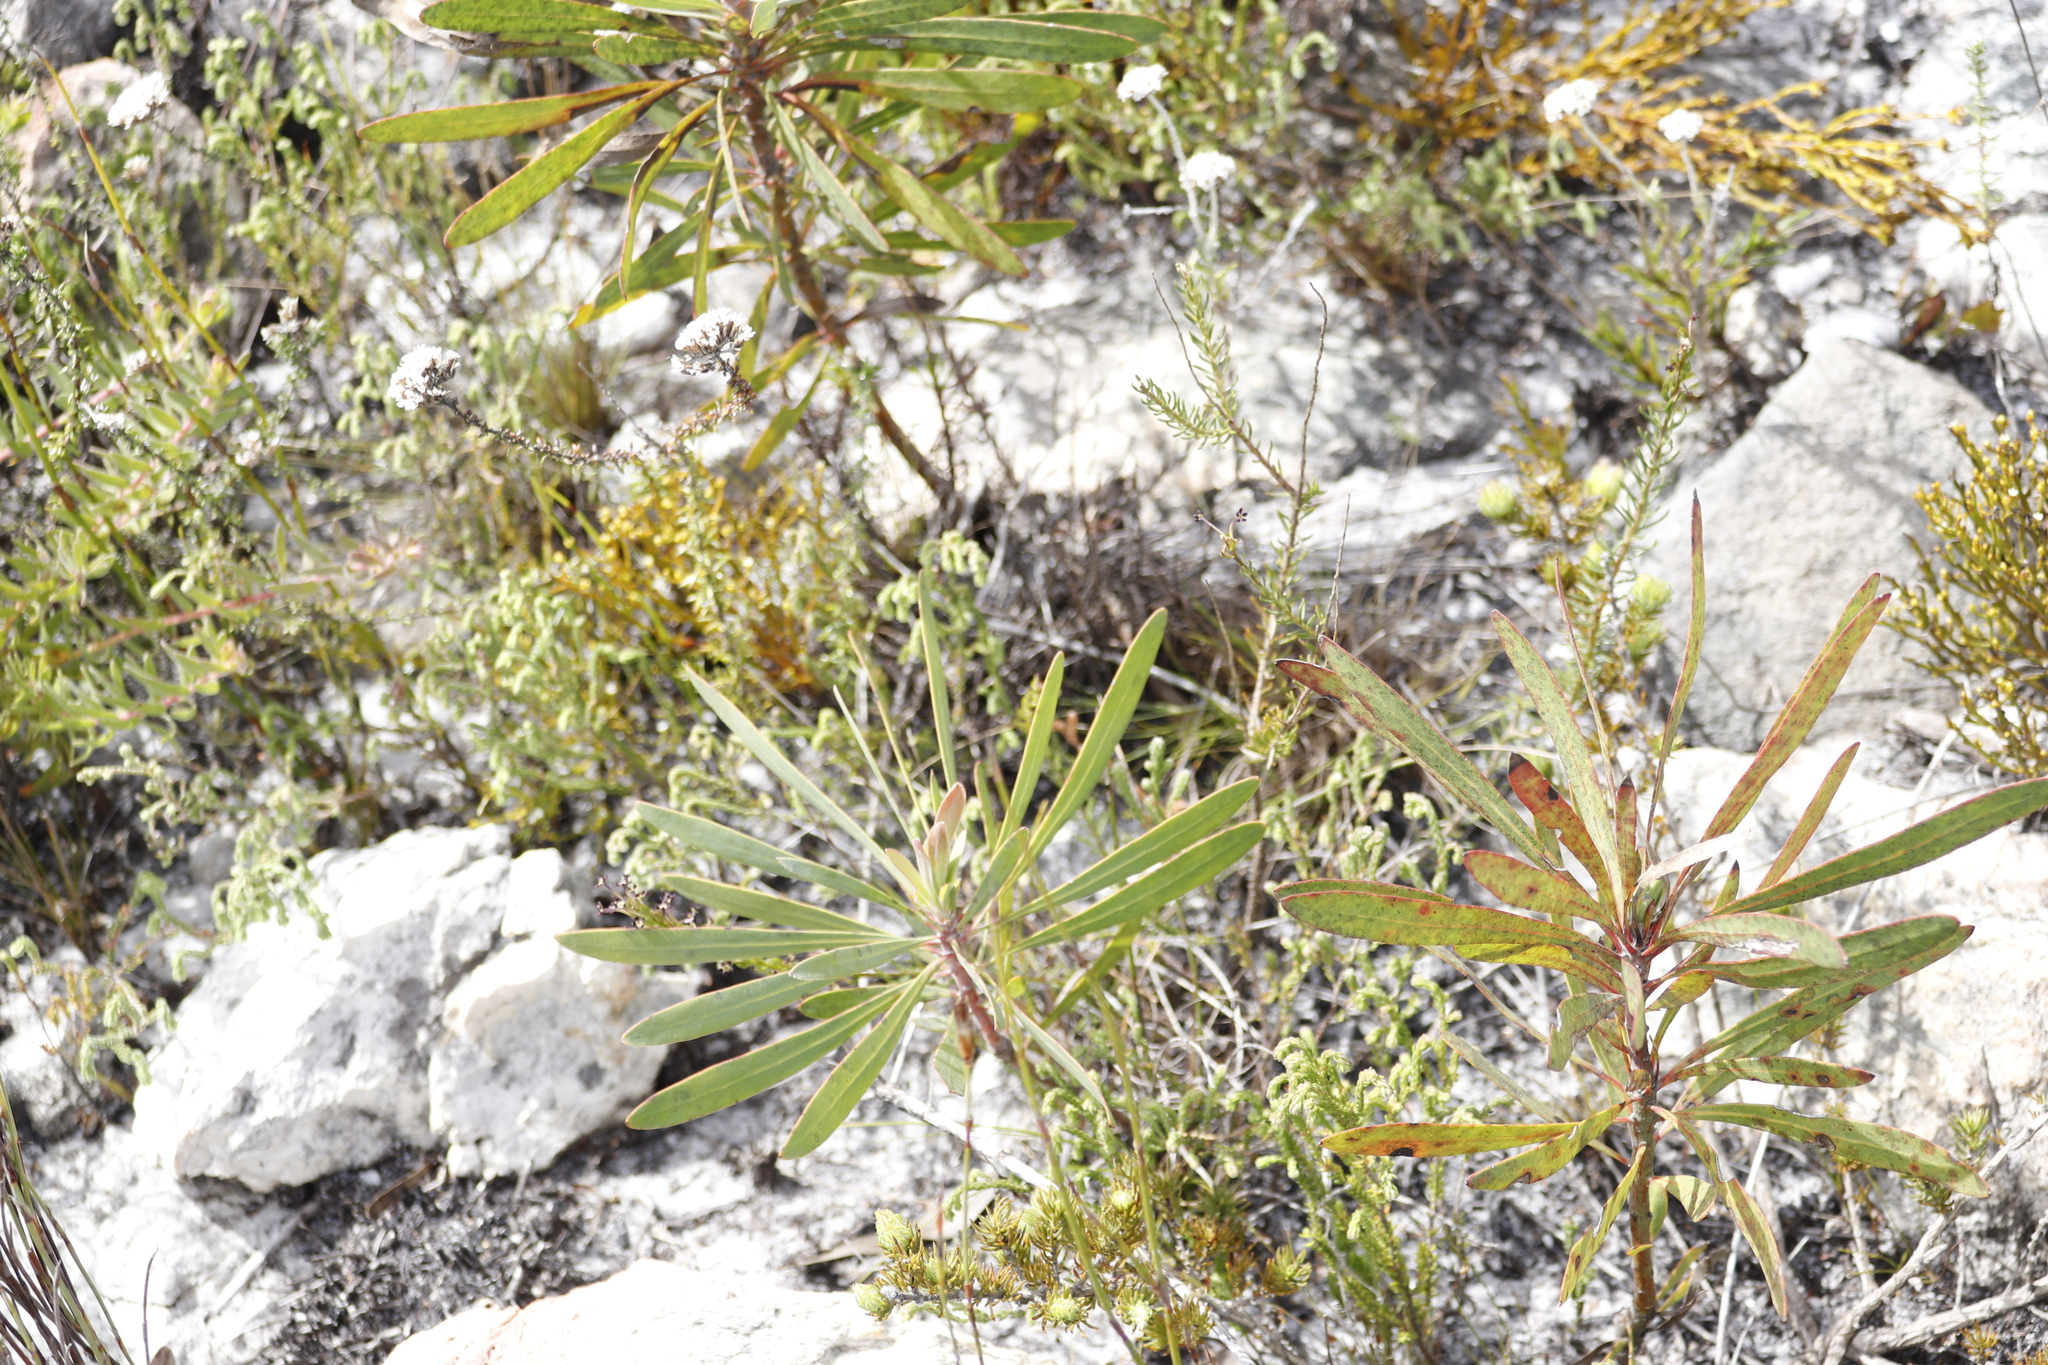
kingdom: Plantae
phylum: Tracheophyta
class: Magnoliopsida
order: Proteales
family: Proteaceae
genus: Protea
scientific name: Protea longifolia
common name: Long-leaf sugarbush
